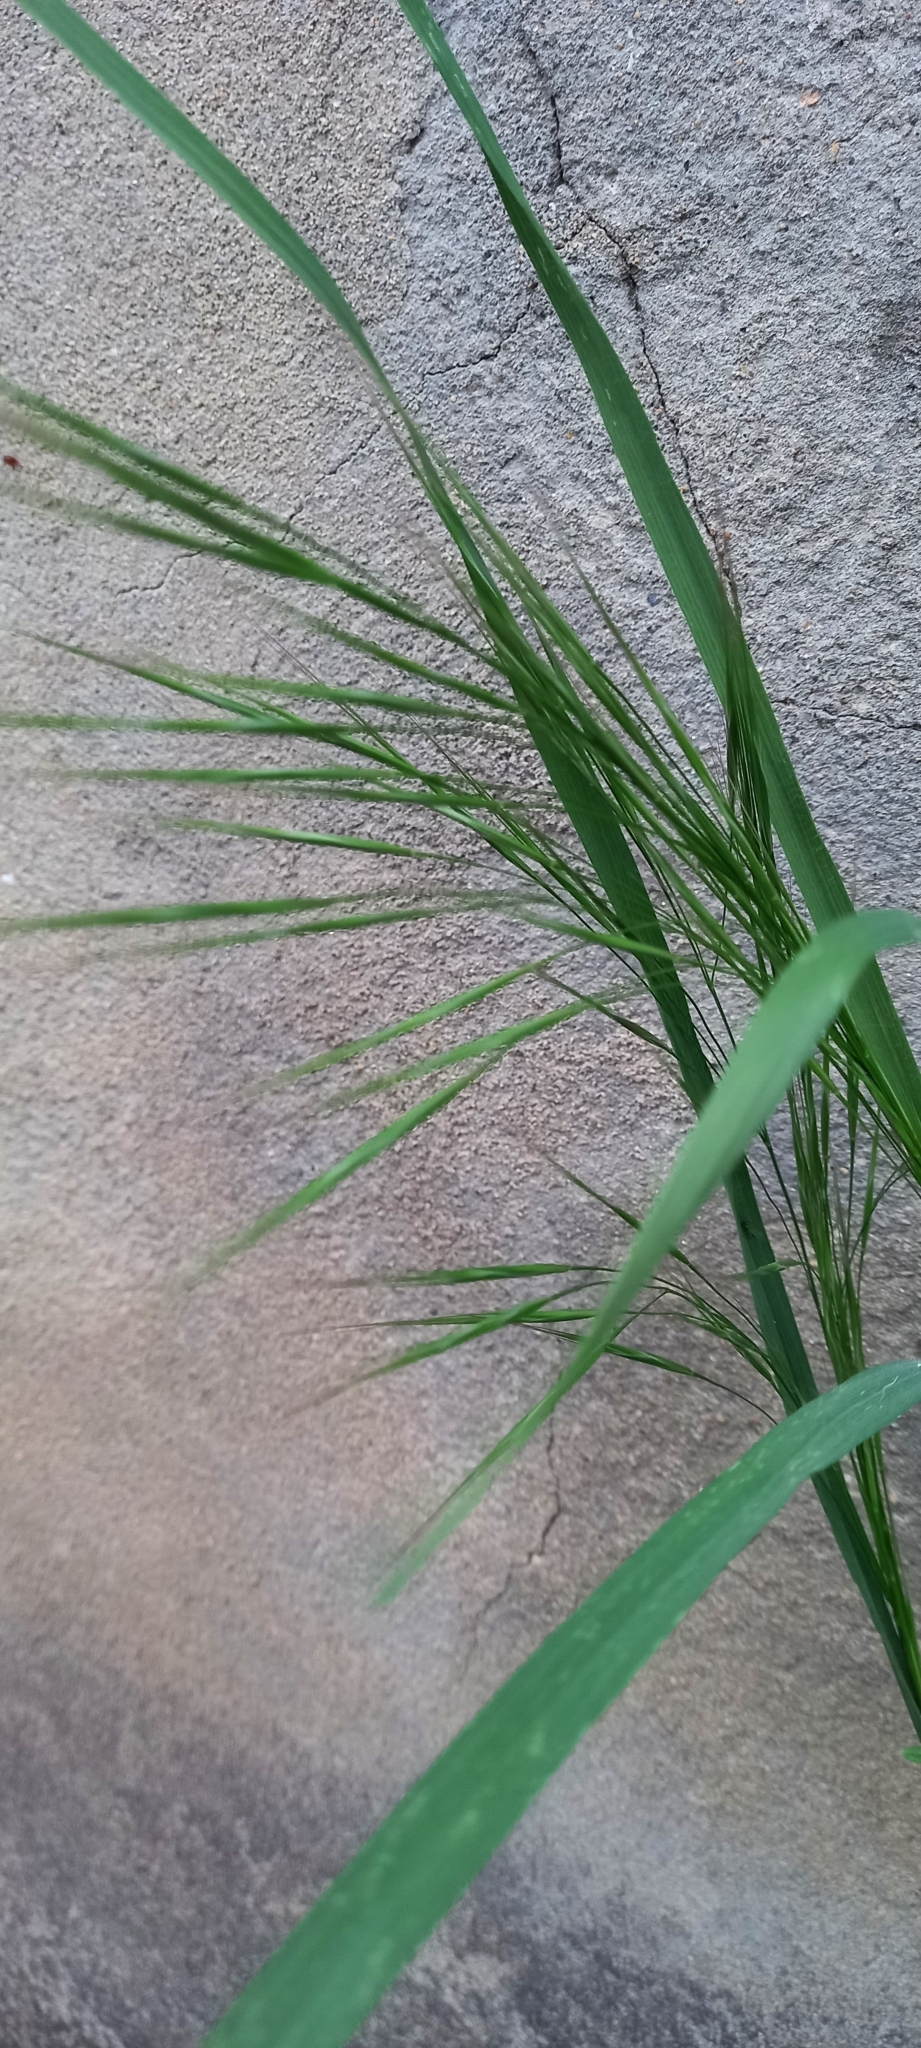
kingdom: Plantae
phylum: Tracheophyta
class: Liliopsida
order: Poales
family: Poaceae
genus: Bromus
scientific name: Bromus tectorum
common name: Cheatgrass
